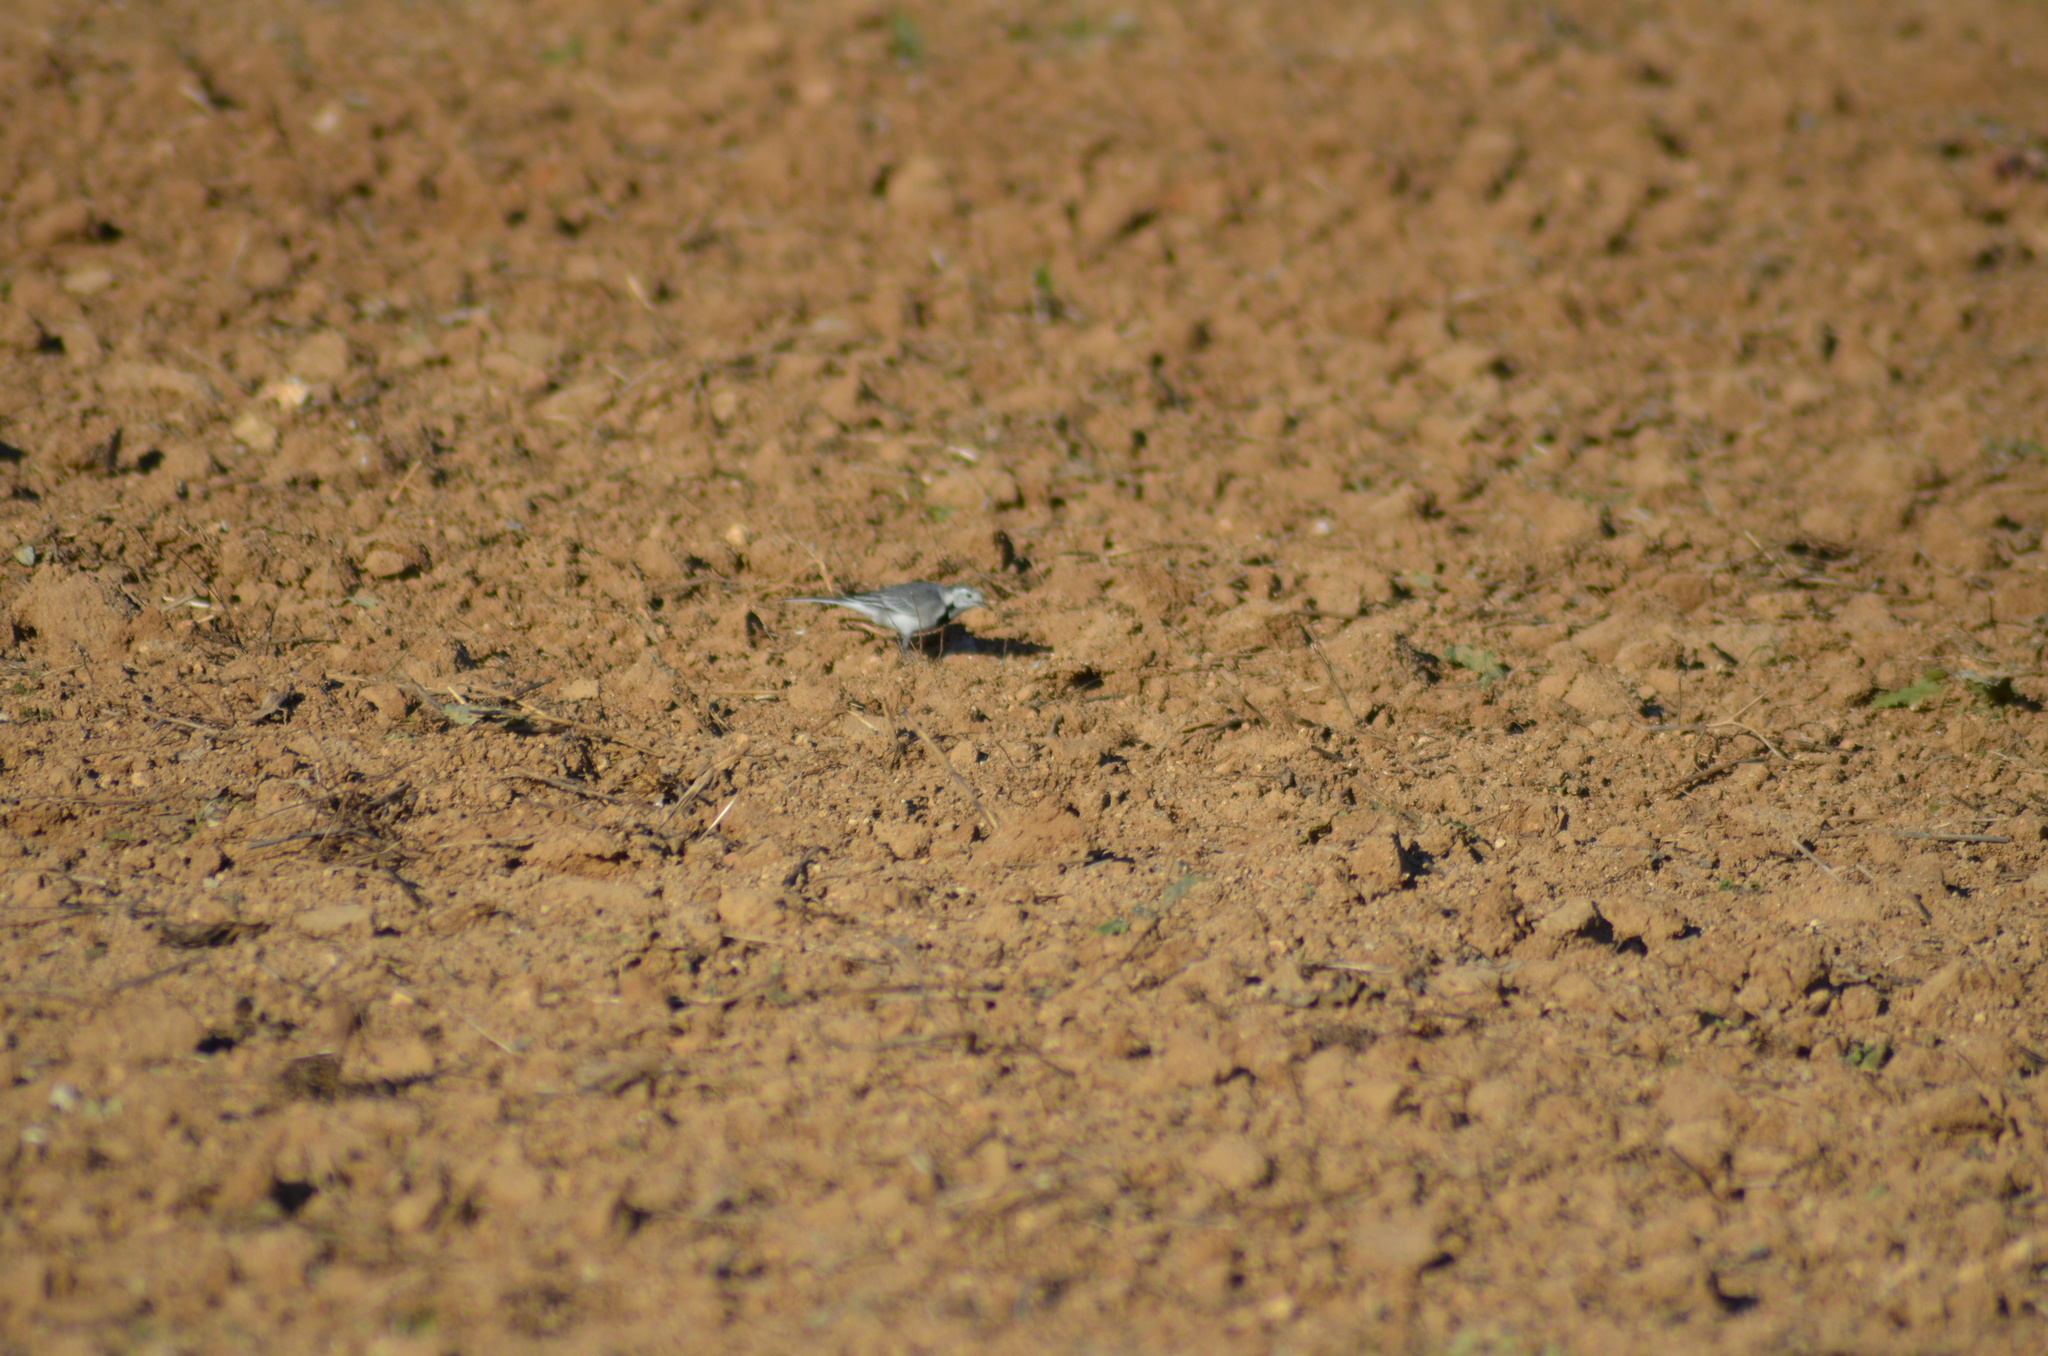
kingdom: Animalia
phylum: Chordata
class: Aves
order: Passeriformes
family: Motacillidae
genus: Motacilla
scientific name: Motacilla alba
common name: White wagtail
